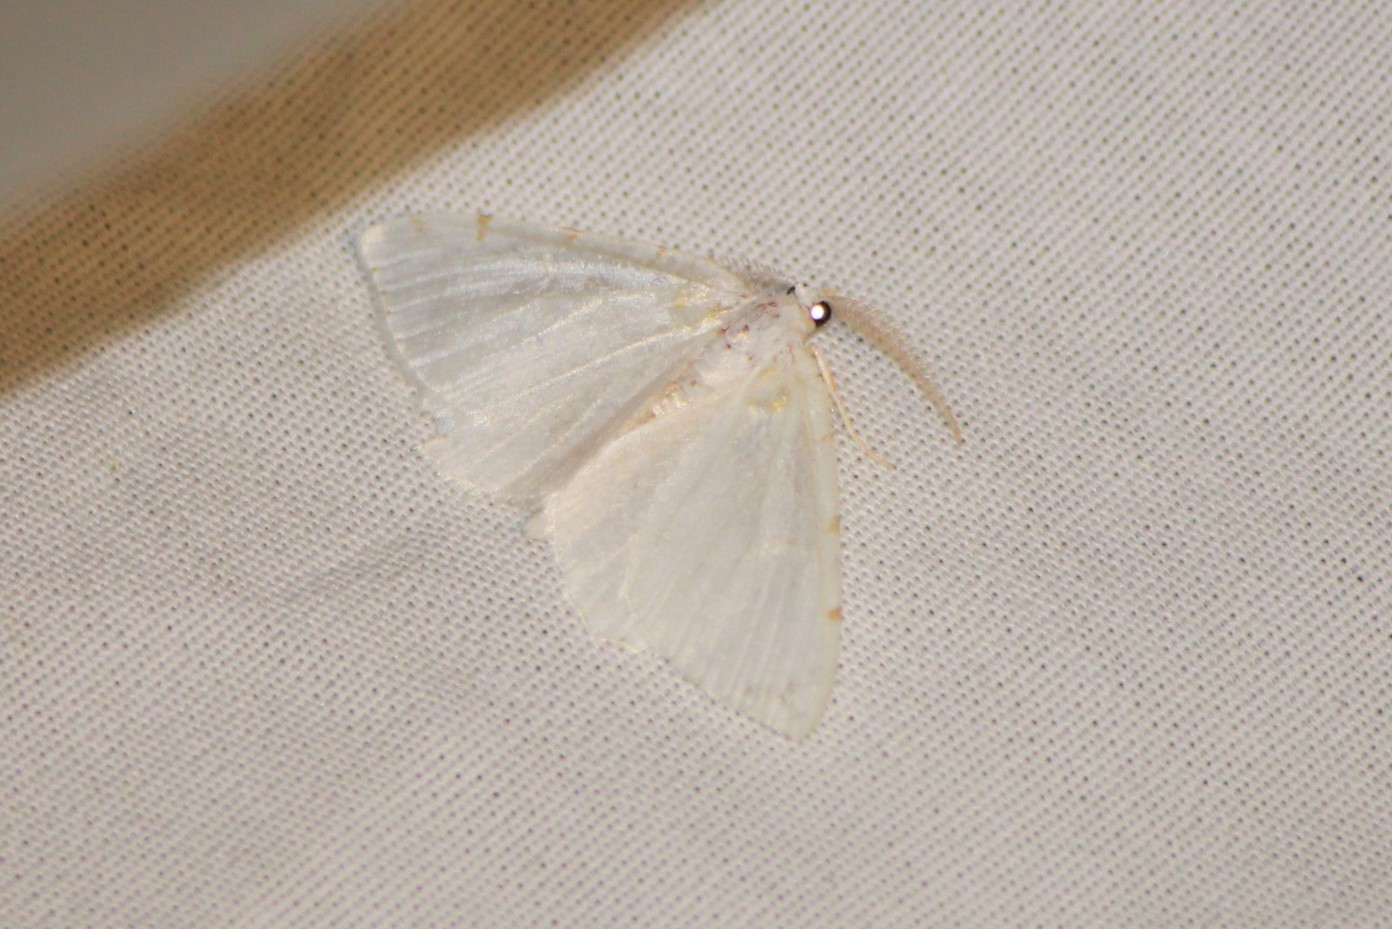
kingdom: Animalia
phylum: Arthropoda
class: Insecta
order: Lepidoptera
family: Geometridae
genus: Macaria
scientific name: Macaria pustularia
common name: Lesser maple spanworm moth
